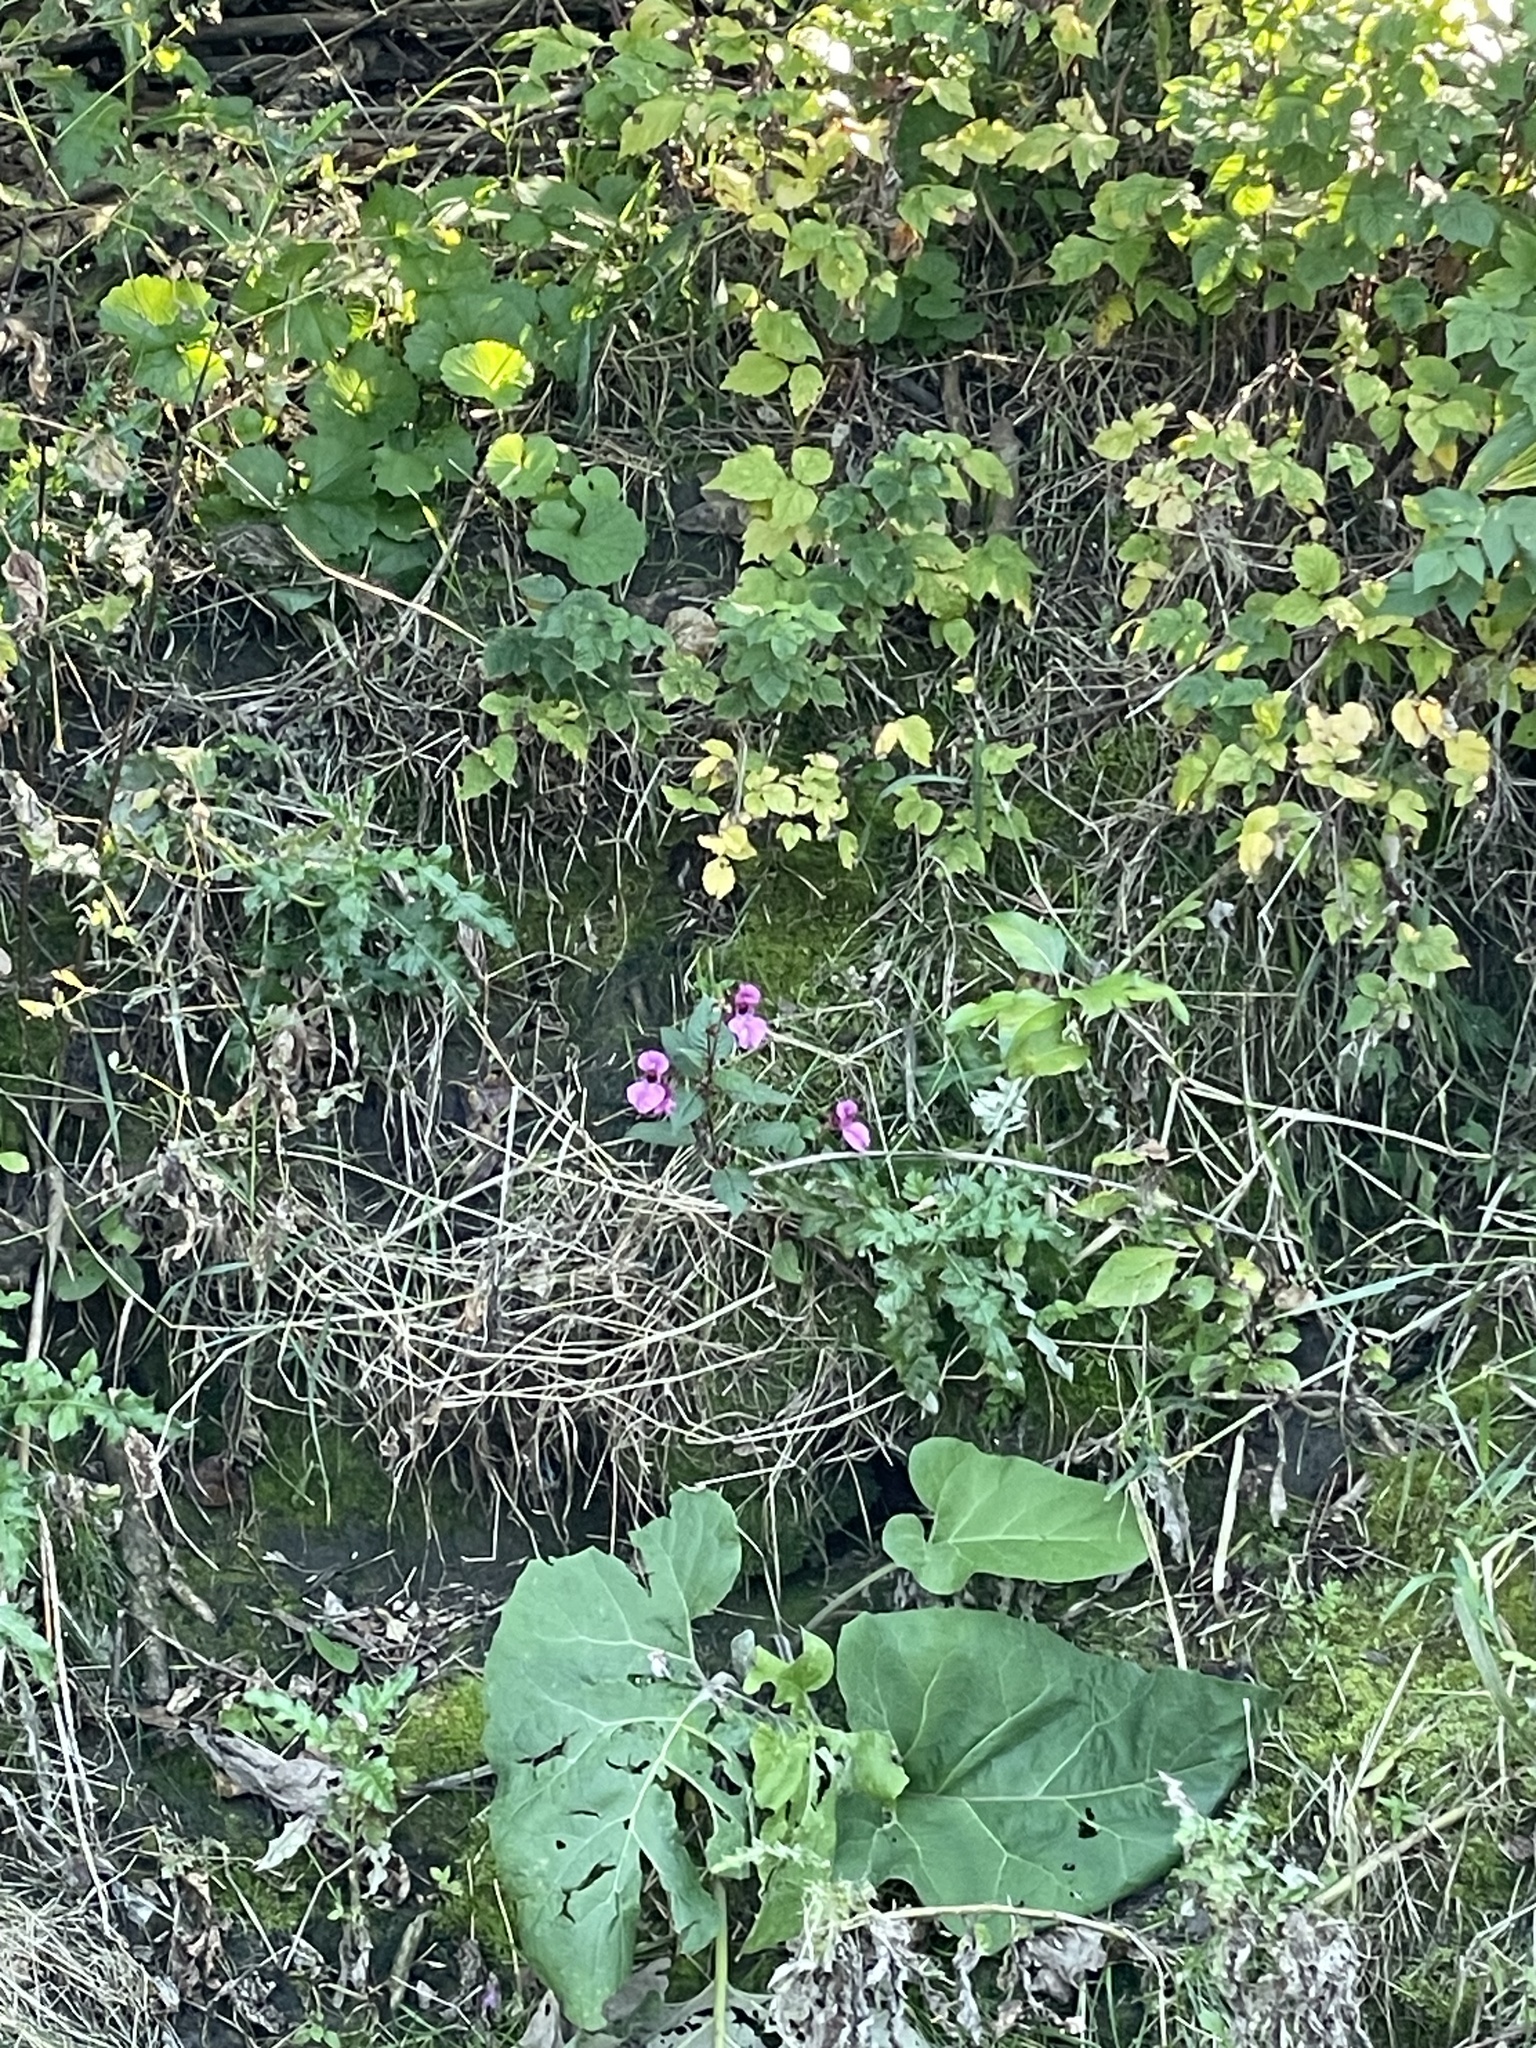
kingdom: Plantae
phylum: Tracheophyta
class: Magnoliopsida
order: Ericales
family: Balsaminaceae
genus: Impatiens
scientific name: Impatiens glandulifera
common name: Himalayan balsam
